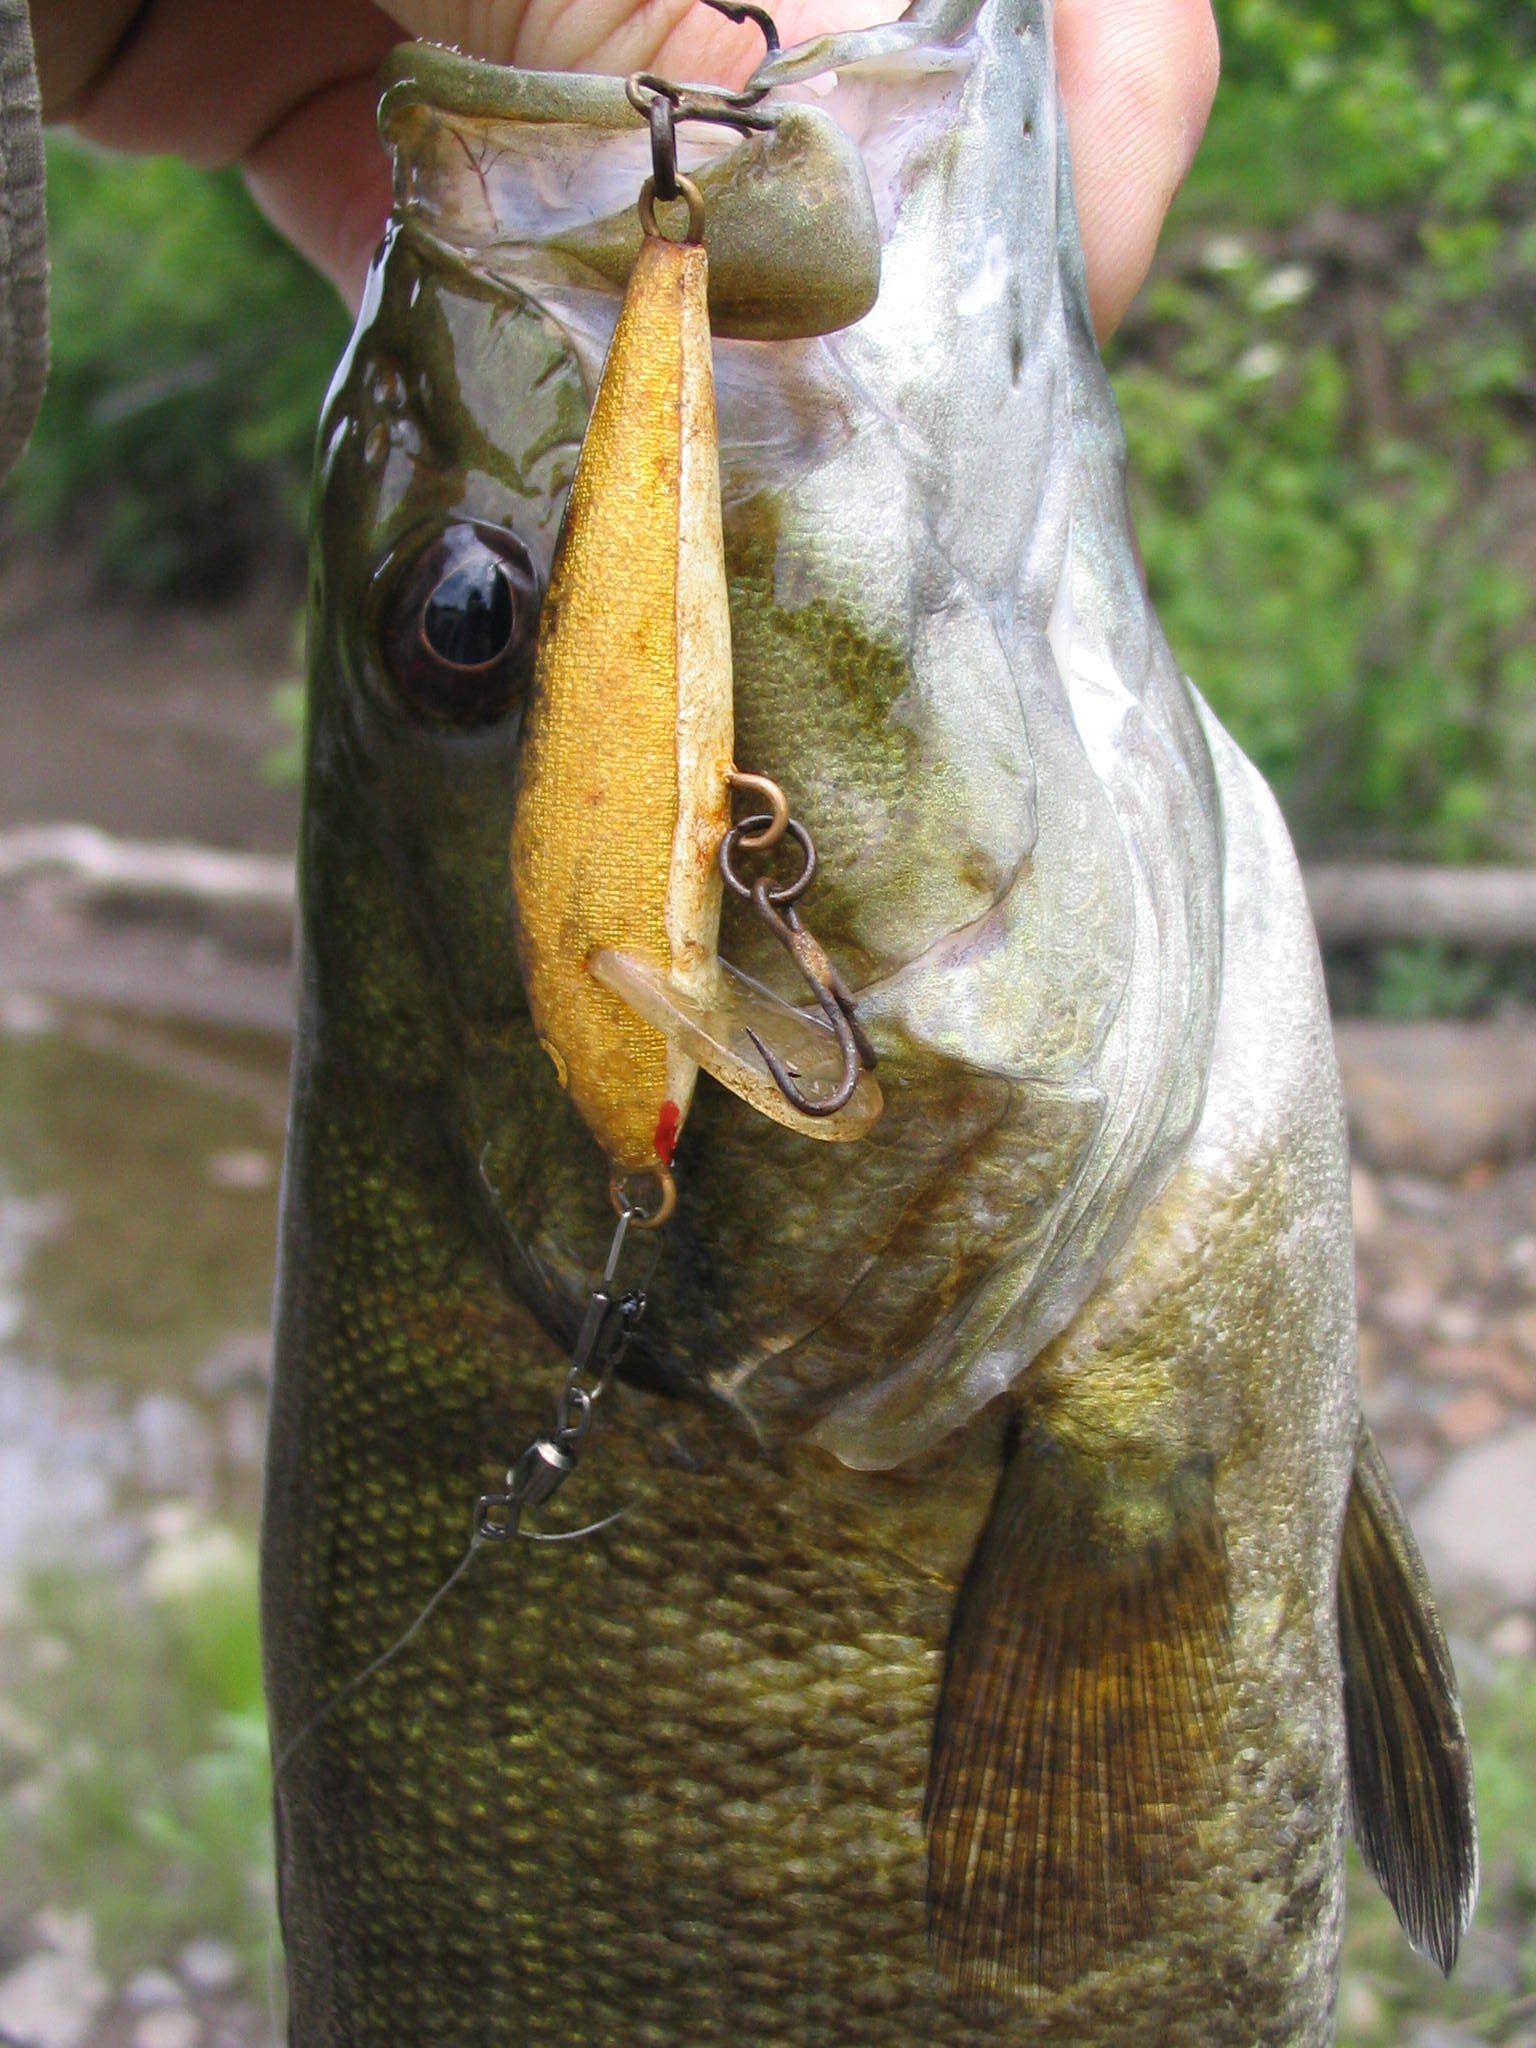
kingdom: Animalia
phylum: Chordata
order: Perciformes
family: Centrarchidae
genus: Micropterus
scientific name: Micropterus dolomieu
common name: Smallmouth bass
